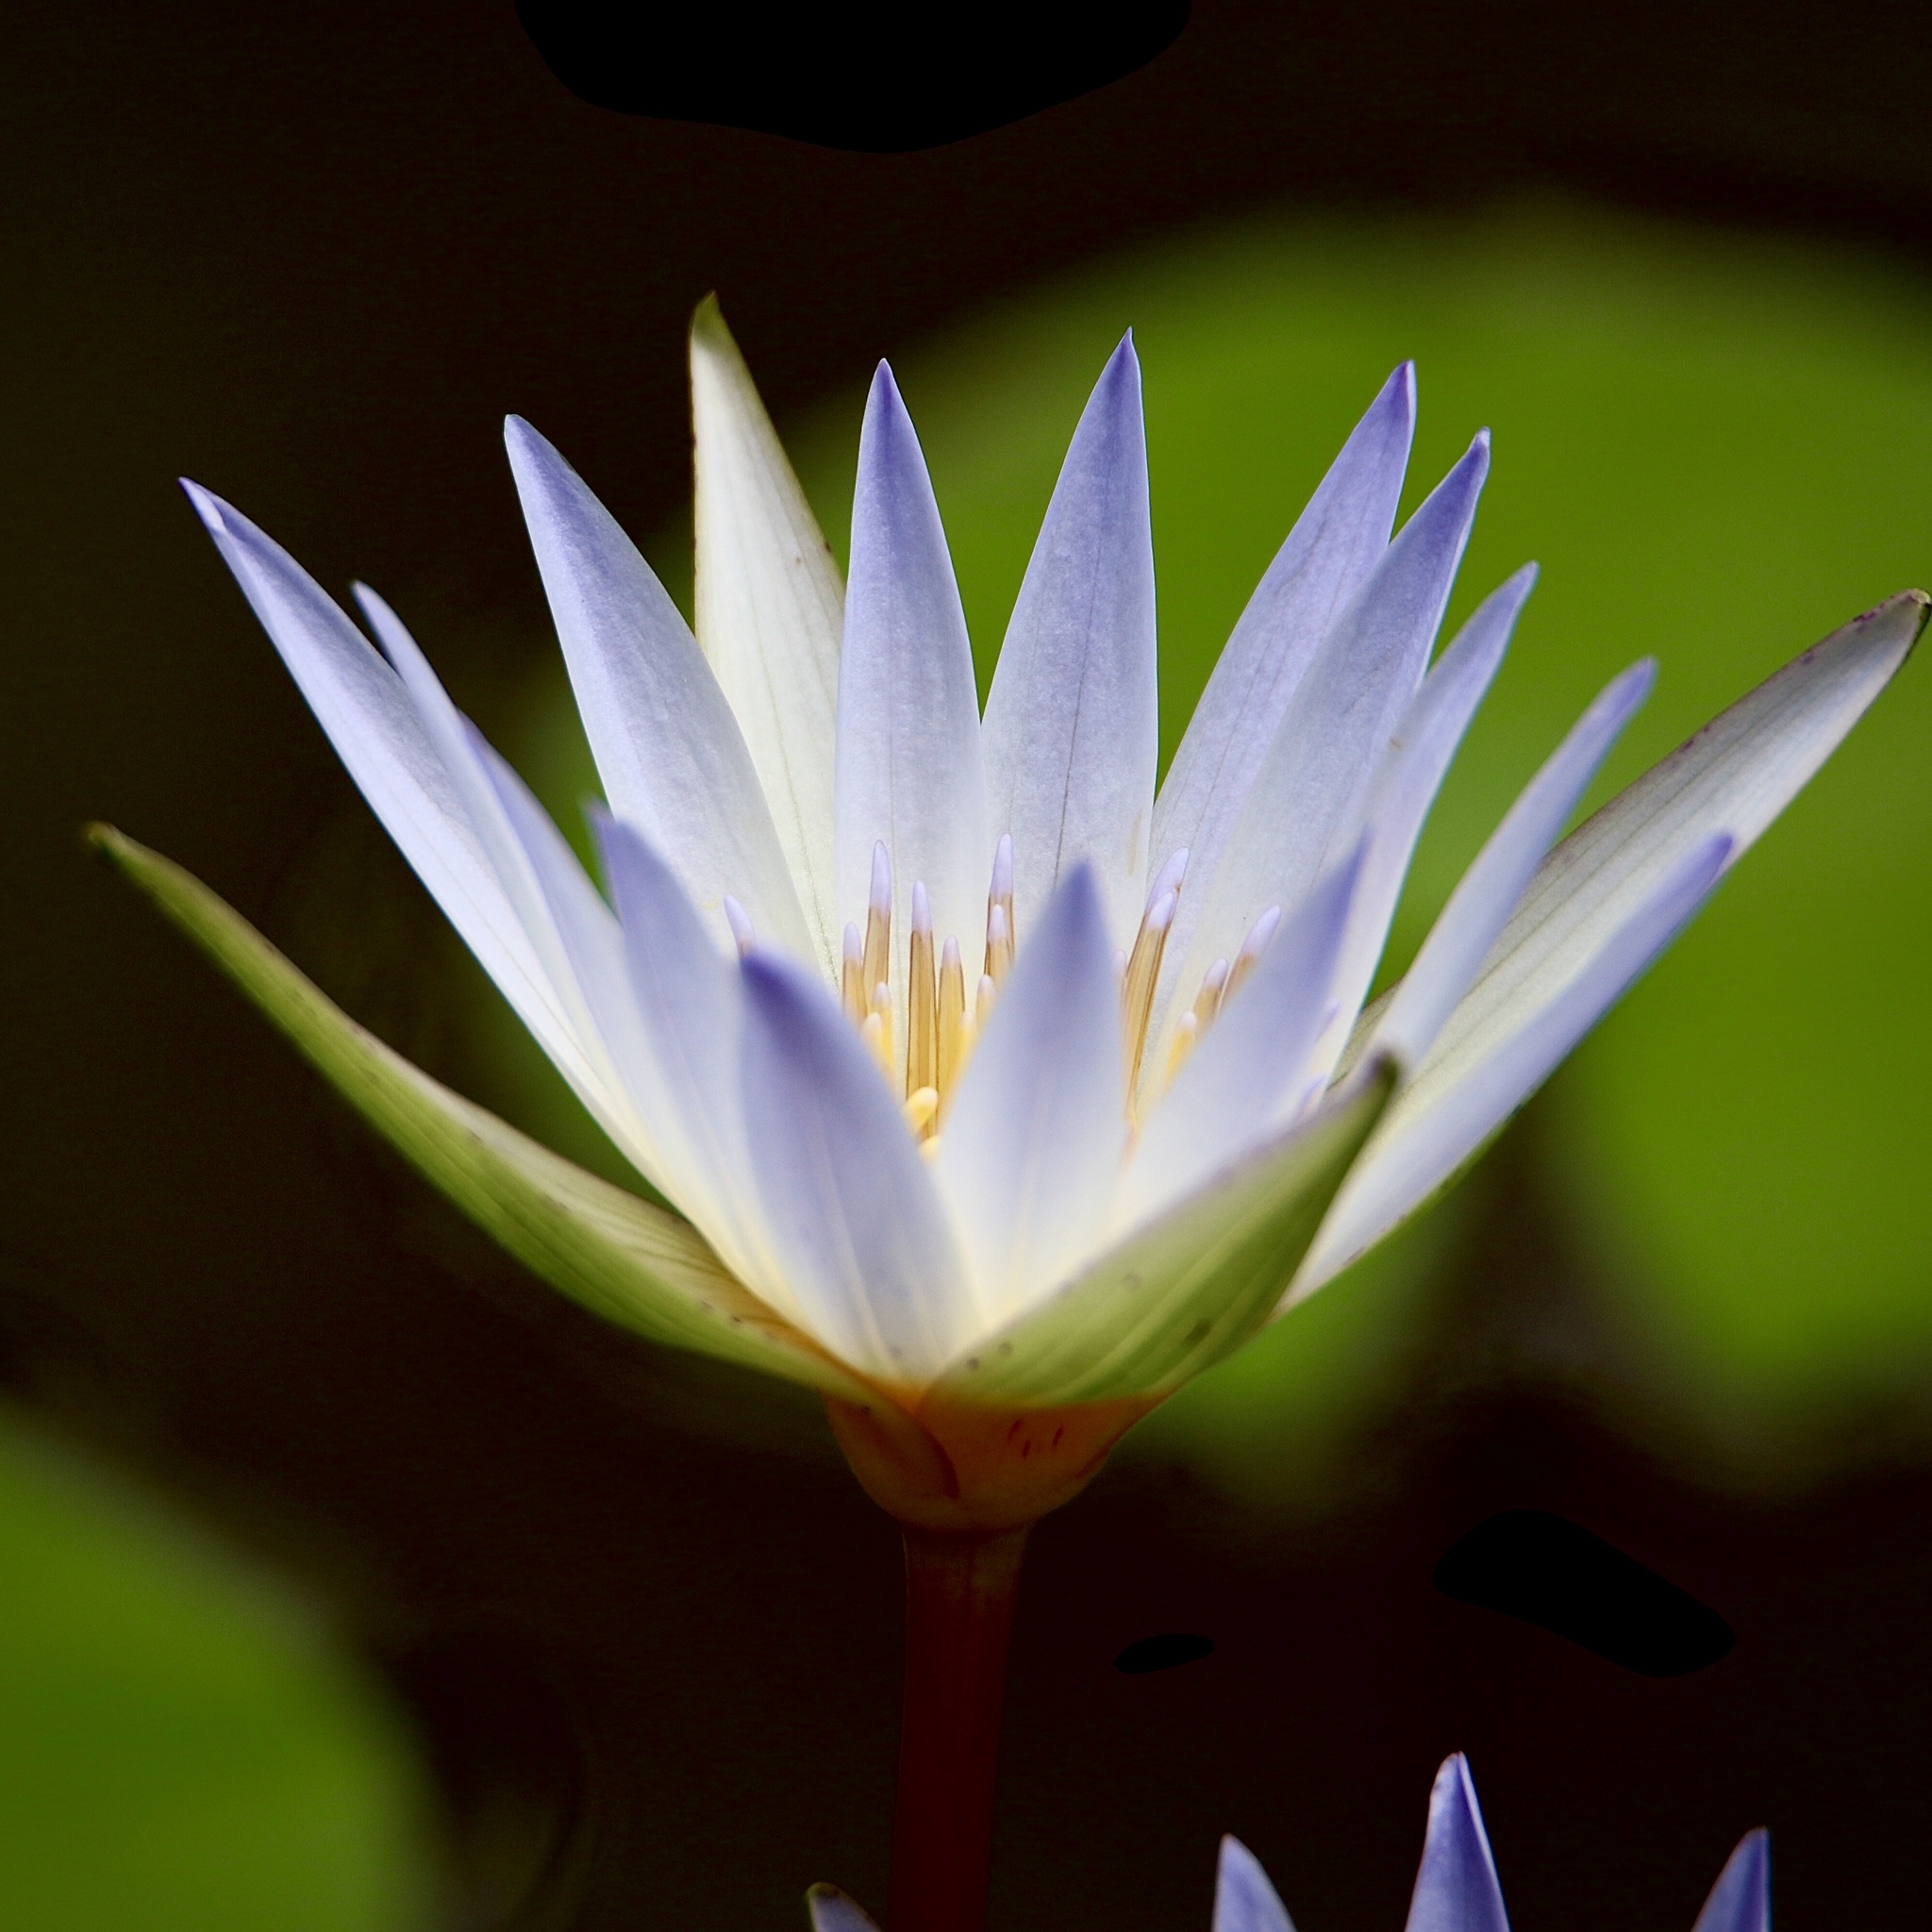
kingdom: Plantae
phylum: Tracheophyta
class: Magnoliopsida
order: Nymphaeales
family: Nymphaeaceae
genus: Nymphaea
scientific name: Nymphaea elegans
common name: Blue water-lily
